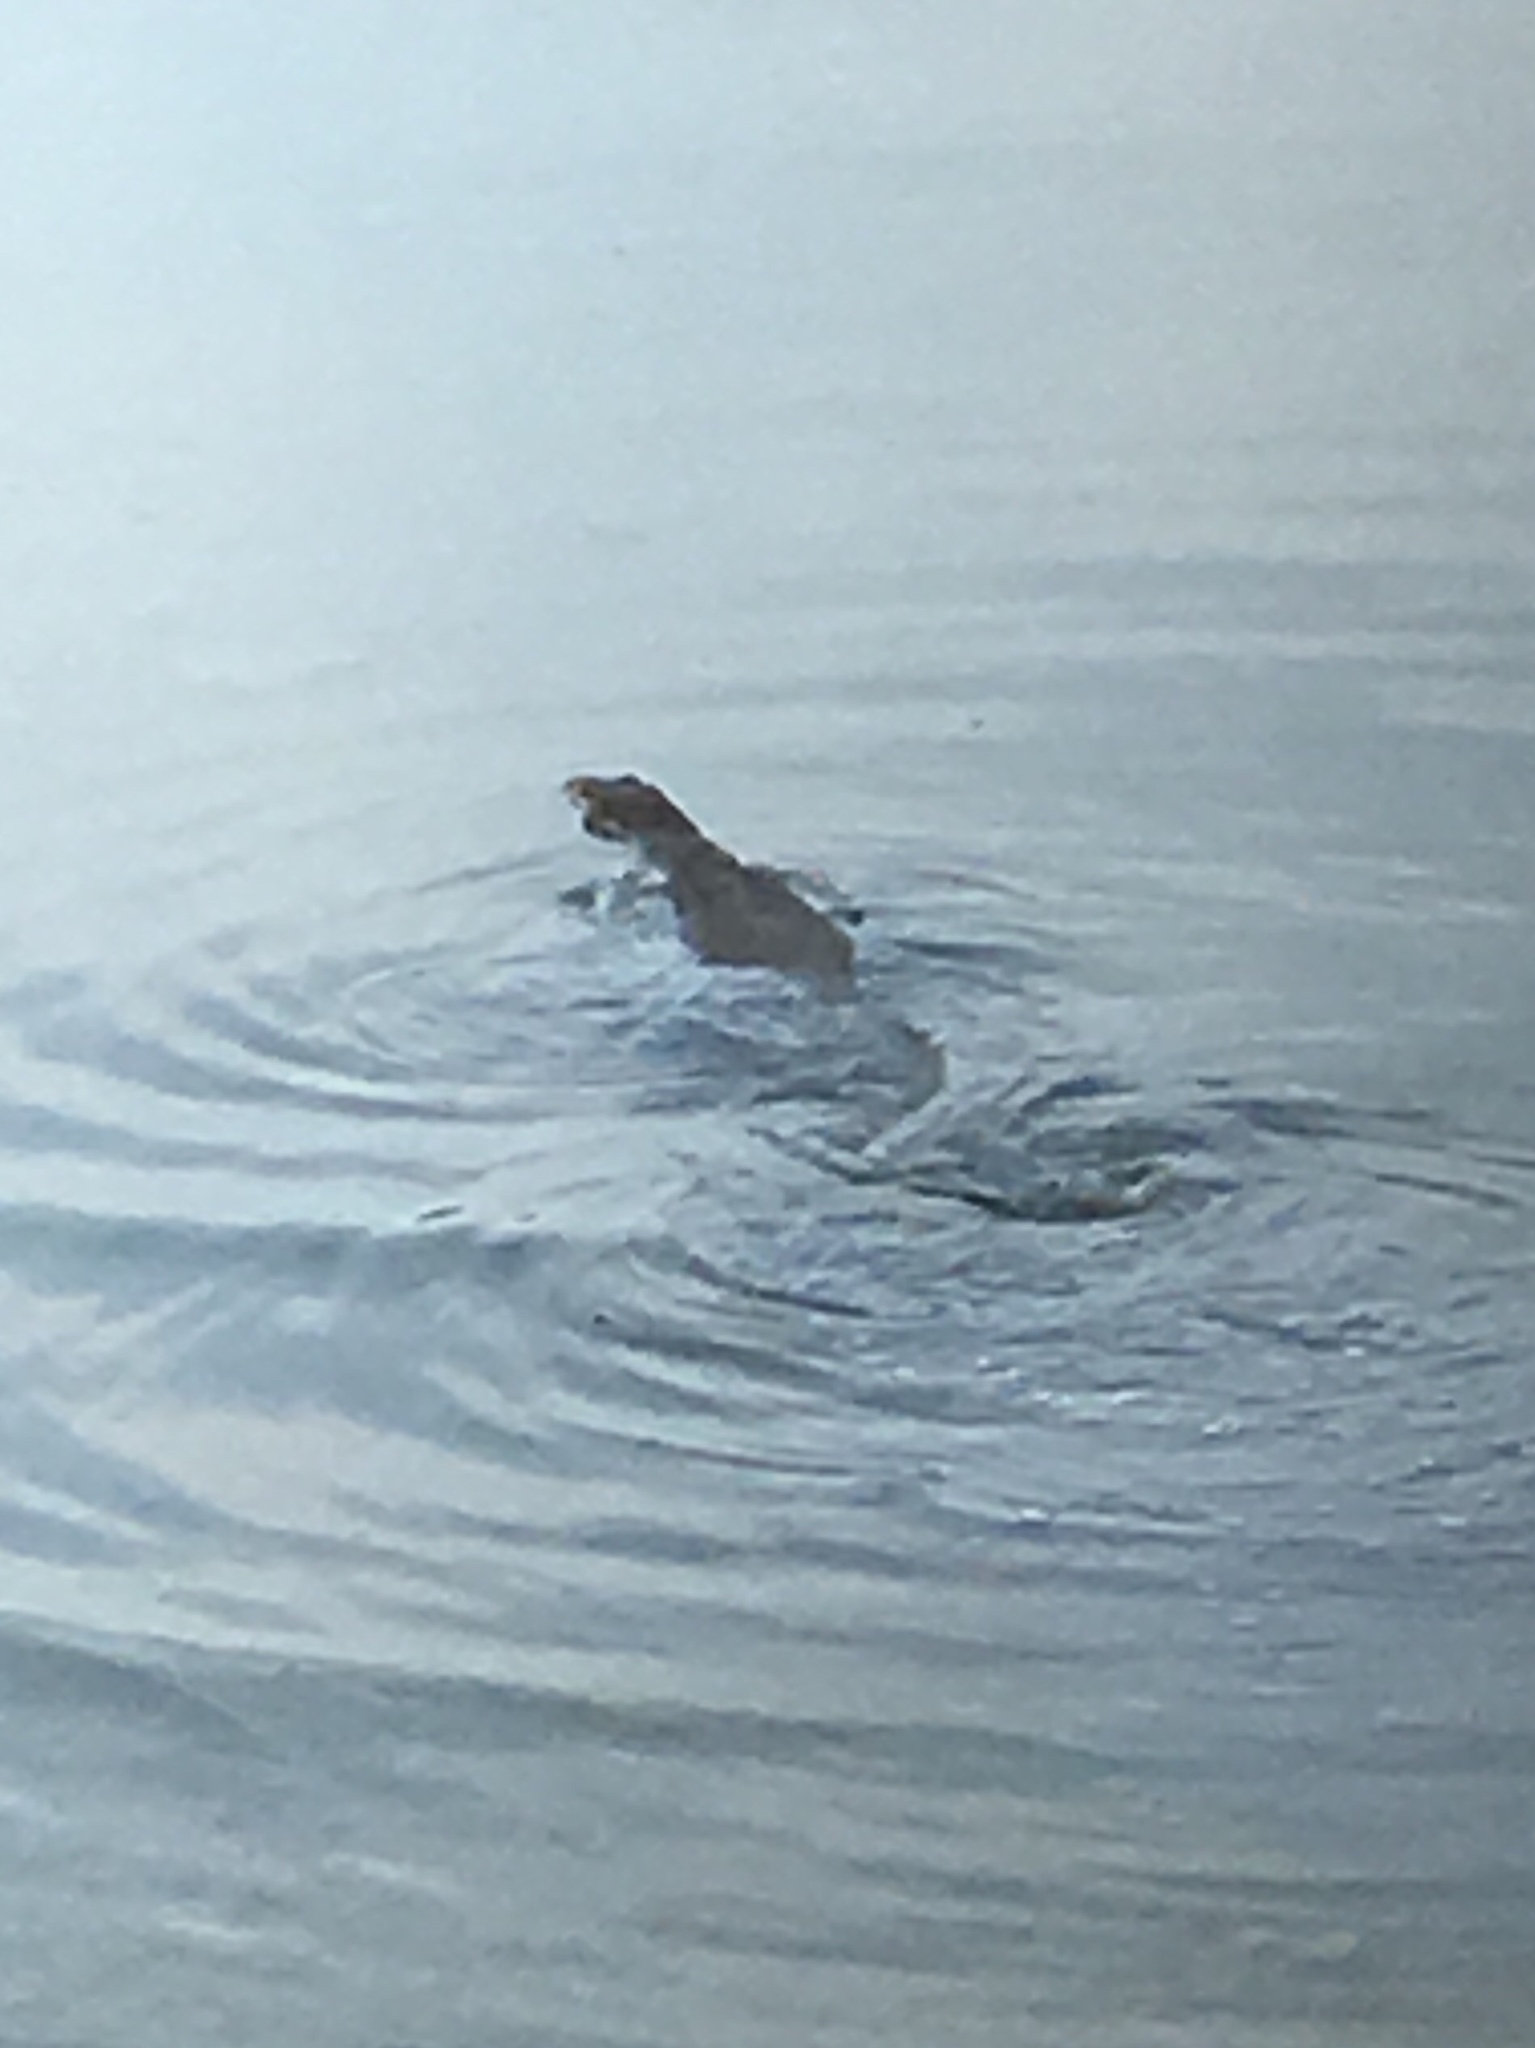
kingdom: Animalia
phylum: Chordata
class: Squamata
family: Varanidae
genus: Varanus
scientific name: Varanus salvator
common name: Common water monitor
